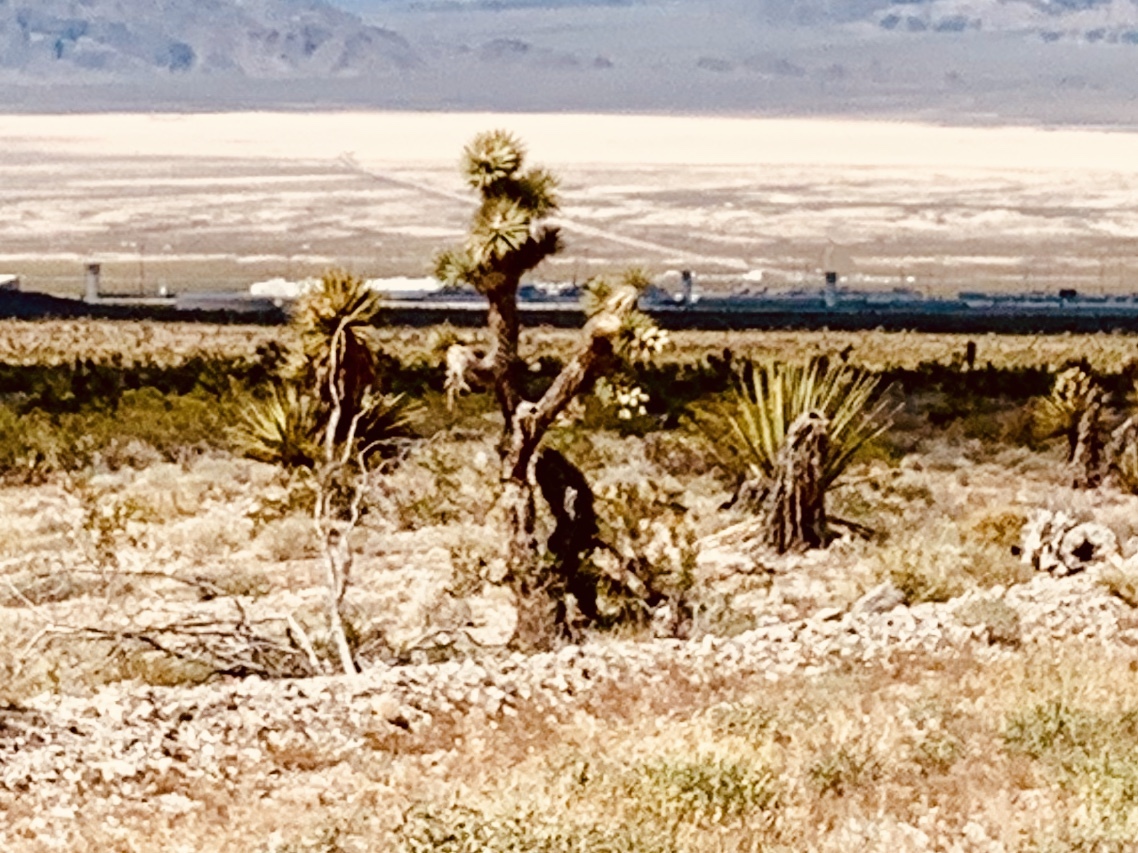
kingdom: Plantae
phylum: Tracheophyta
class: Liliopsida
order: Asparagales
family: Asparagaceae
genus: Yucca
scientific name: Yucca brevifolia
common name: Joshua tree
